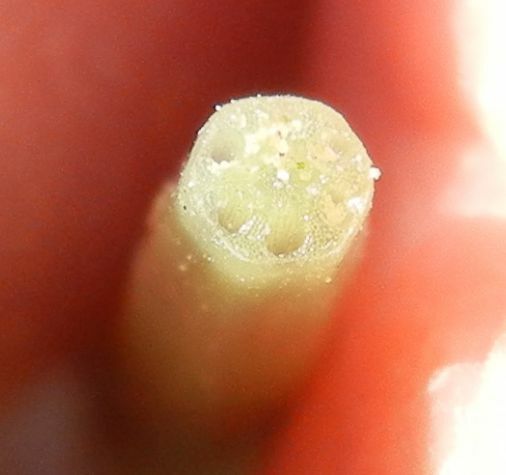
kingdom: Plantae
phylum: Tracheophyta
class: Polypodiopsida
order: Equisetales
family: Equisetaceae
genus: Equisetum
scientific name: Equisetum palustre
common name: Marsh horsetail
